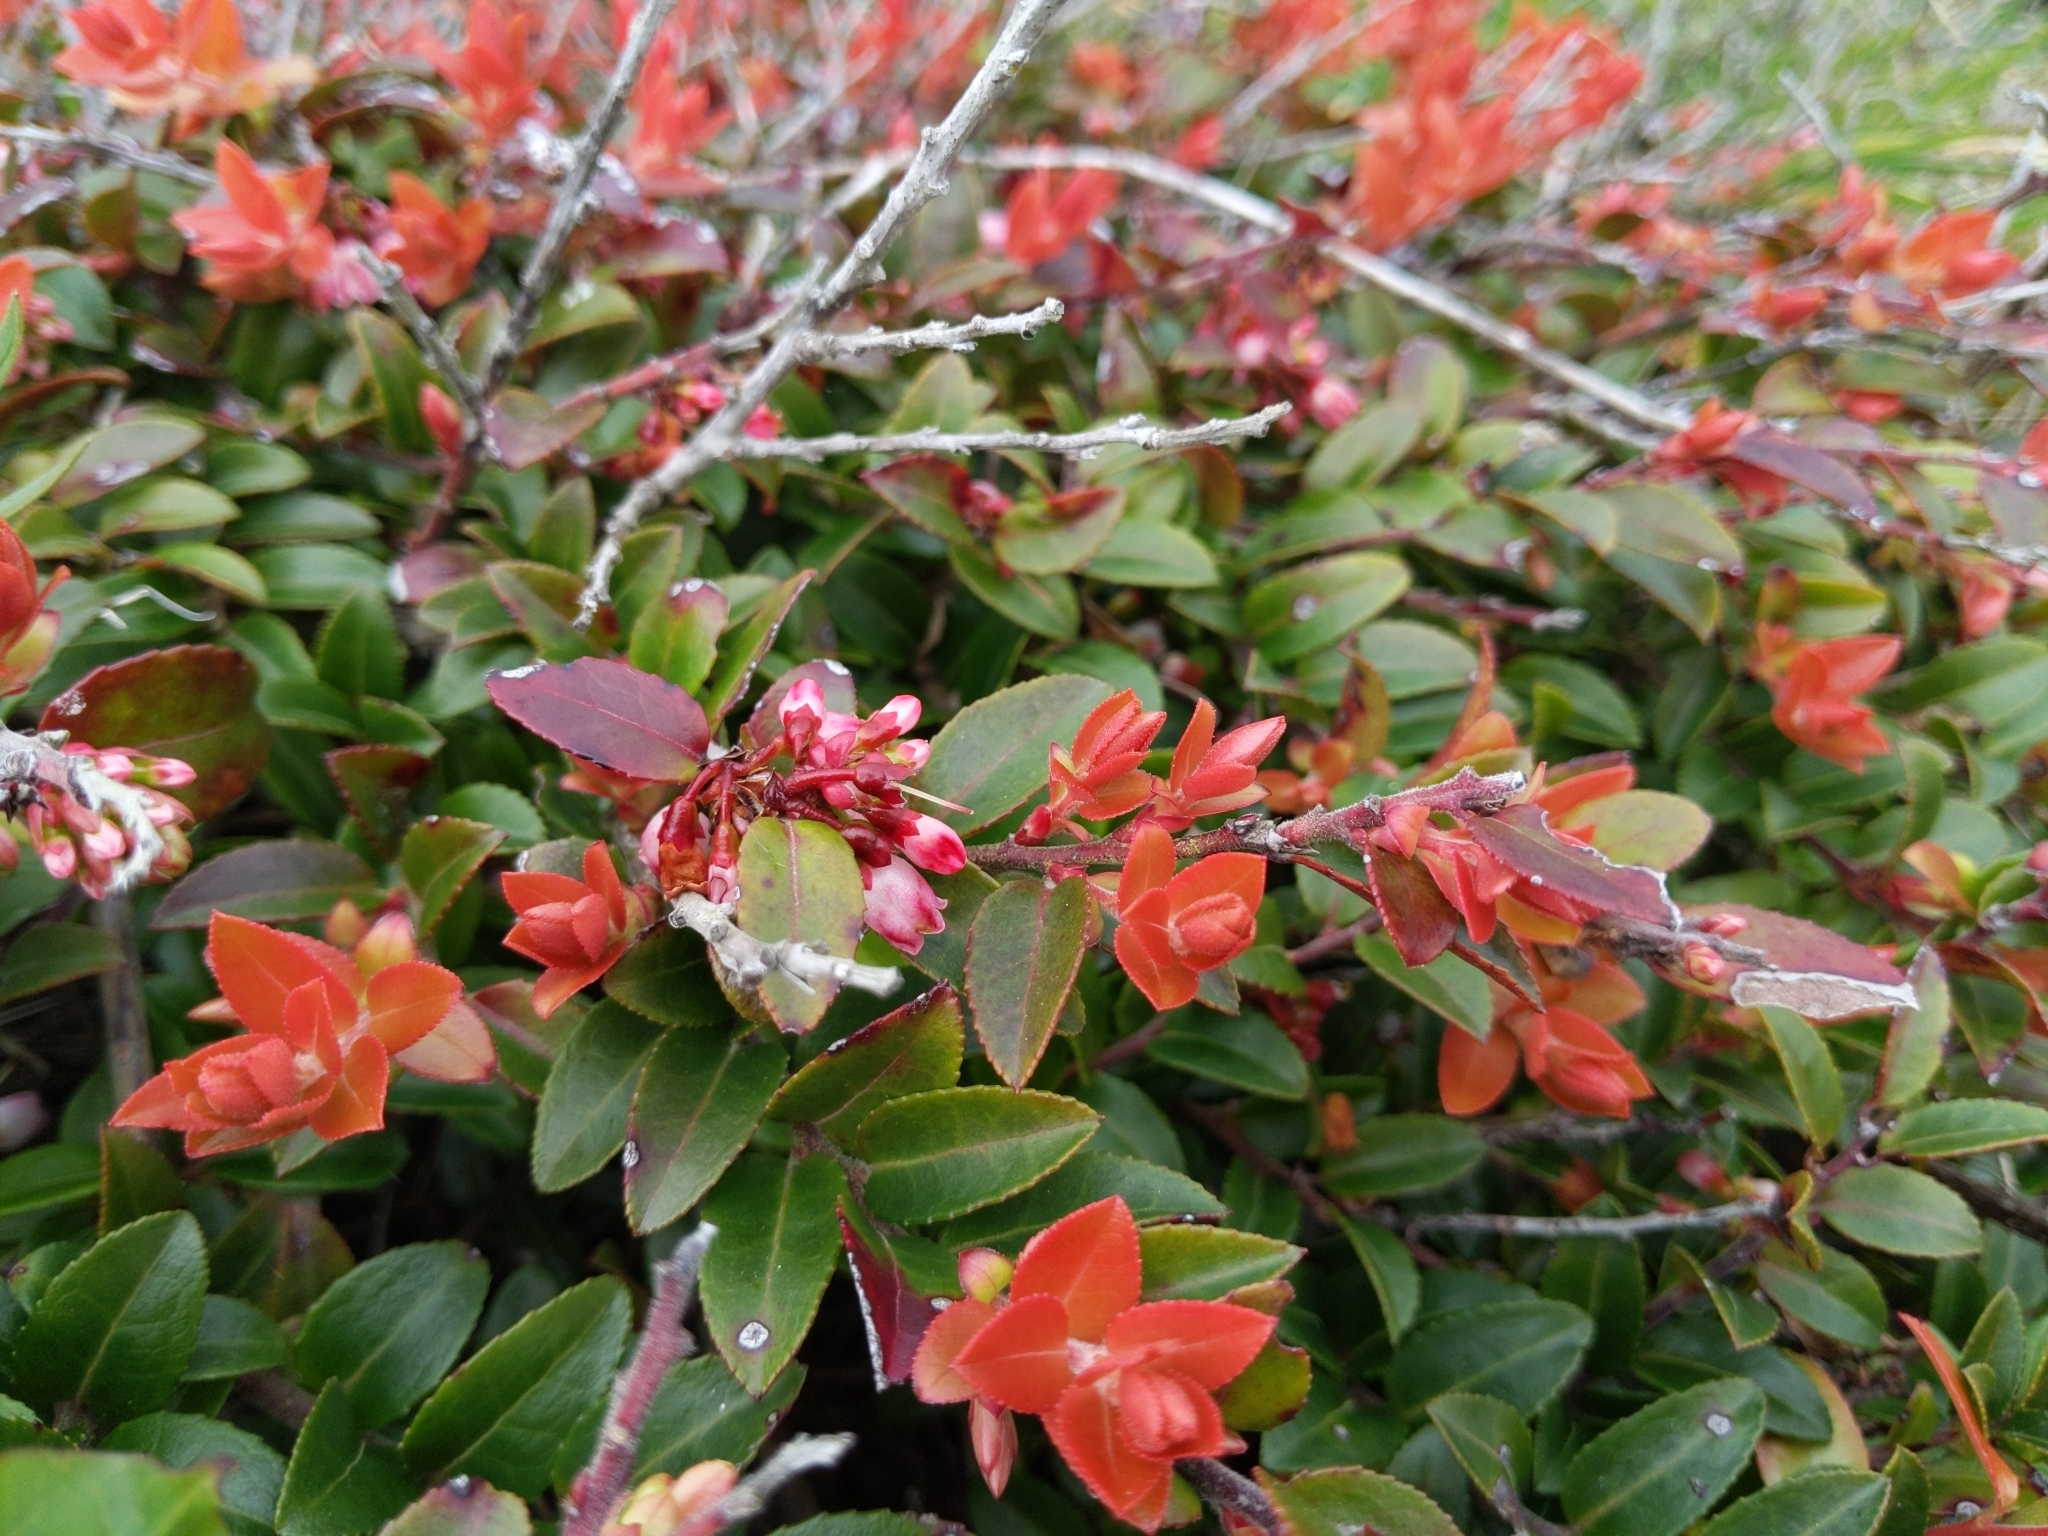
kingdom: Plantae
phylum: Tracheophyta
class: Magnoliopsida
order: Ericales
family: Ericaceae
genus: Vaccinium
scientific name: Vaccinium ovatum
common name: California-huckleberry
